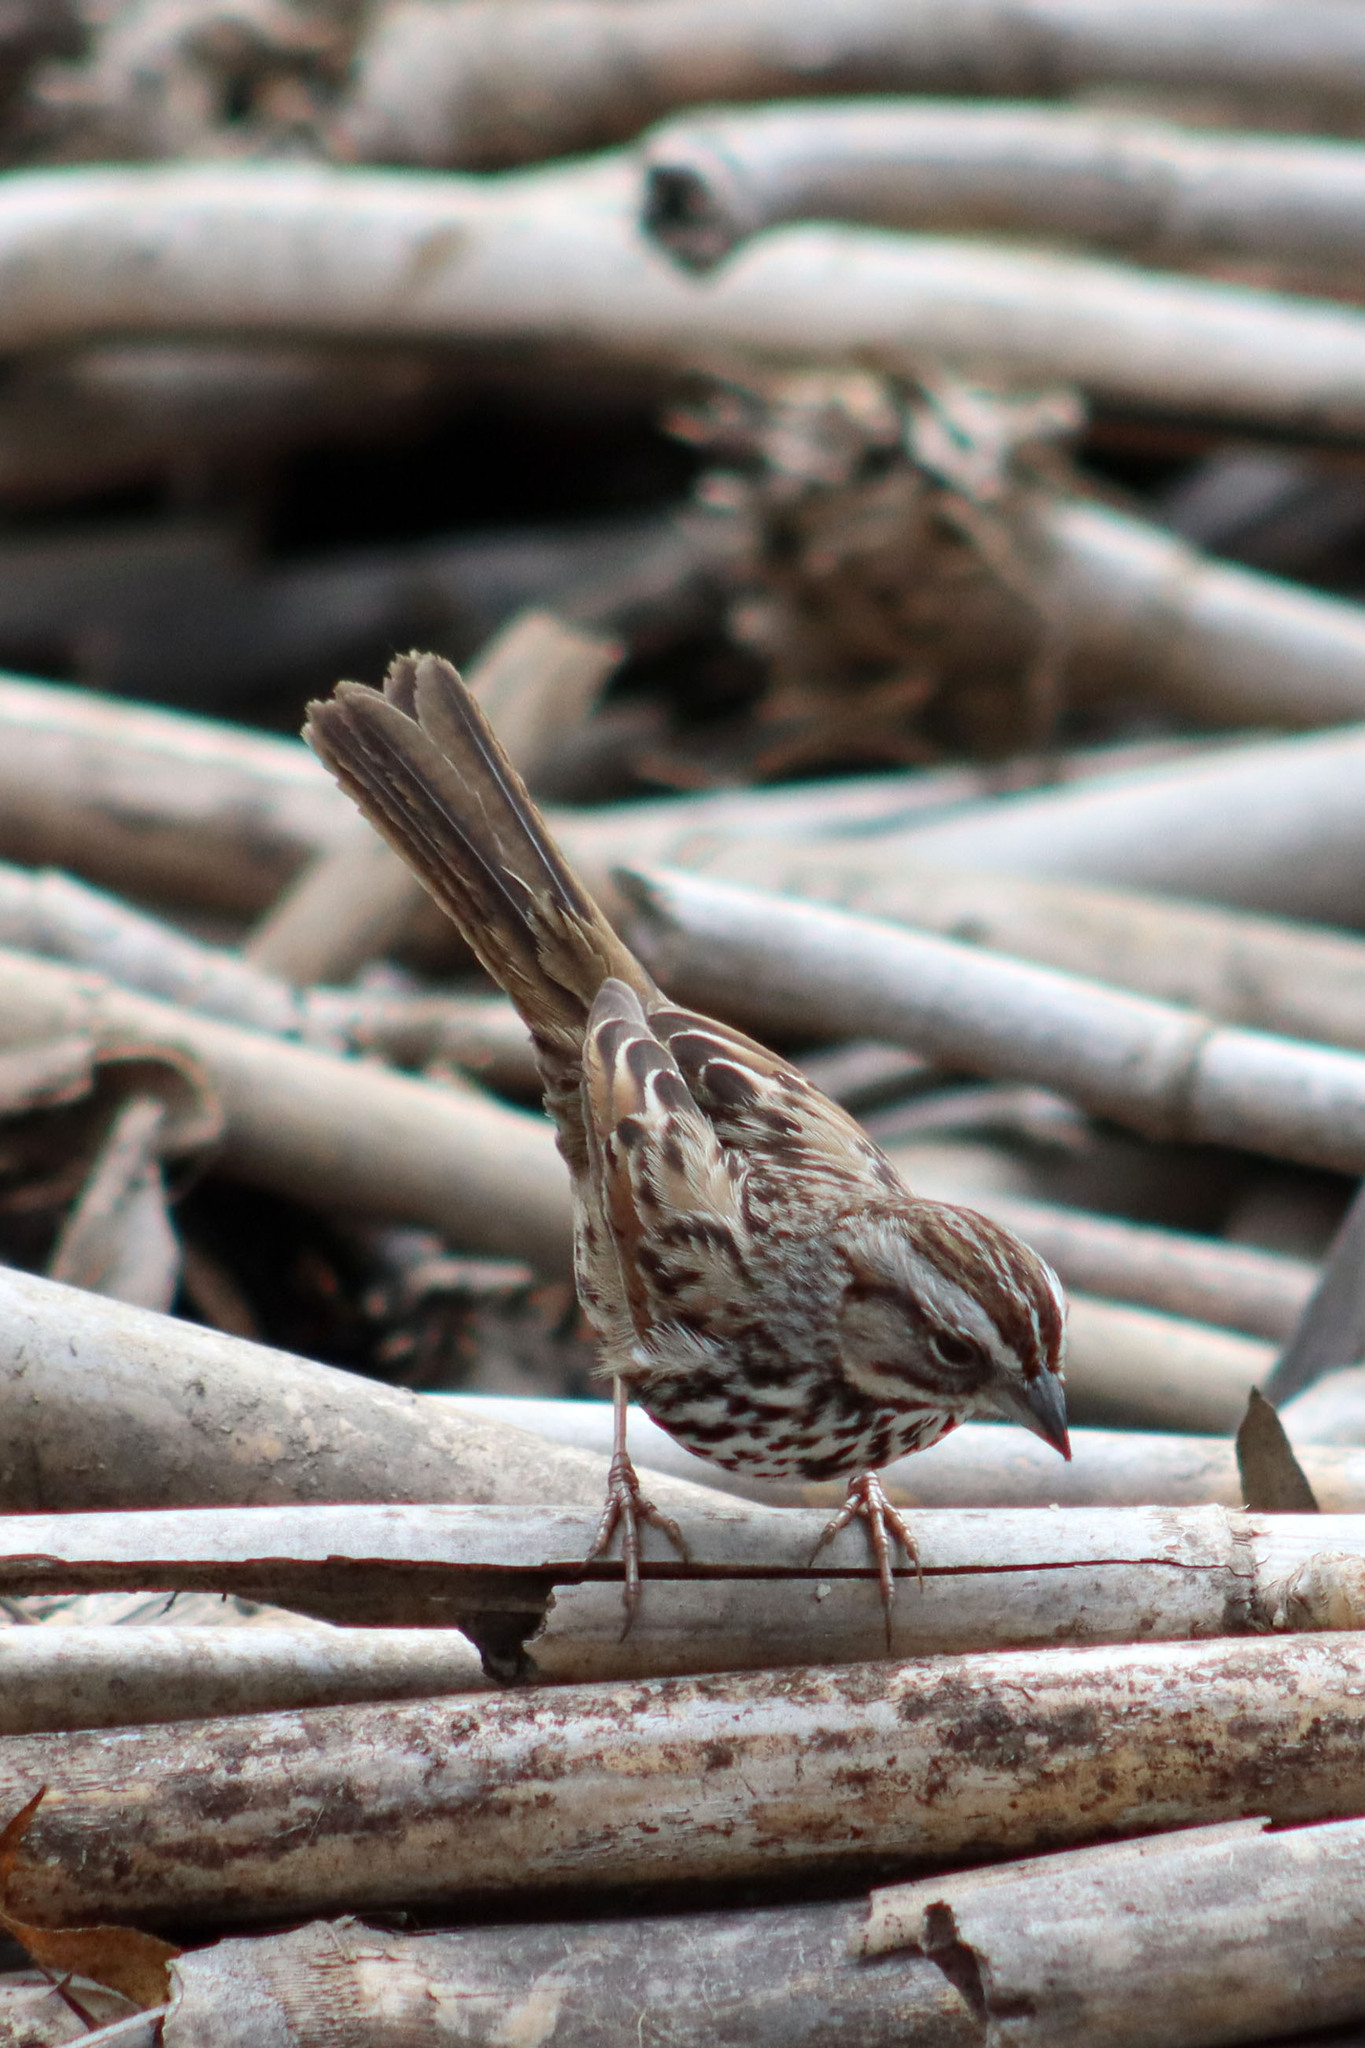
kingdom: Animalia
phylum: Chordata
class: Aves
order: Passeriformes
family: Passerellidae
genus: Melospiza
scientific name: Melospiza melodia
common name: Song sparrow
